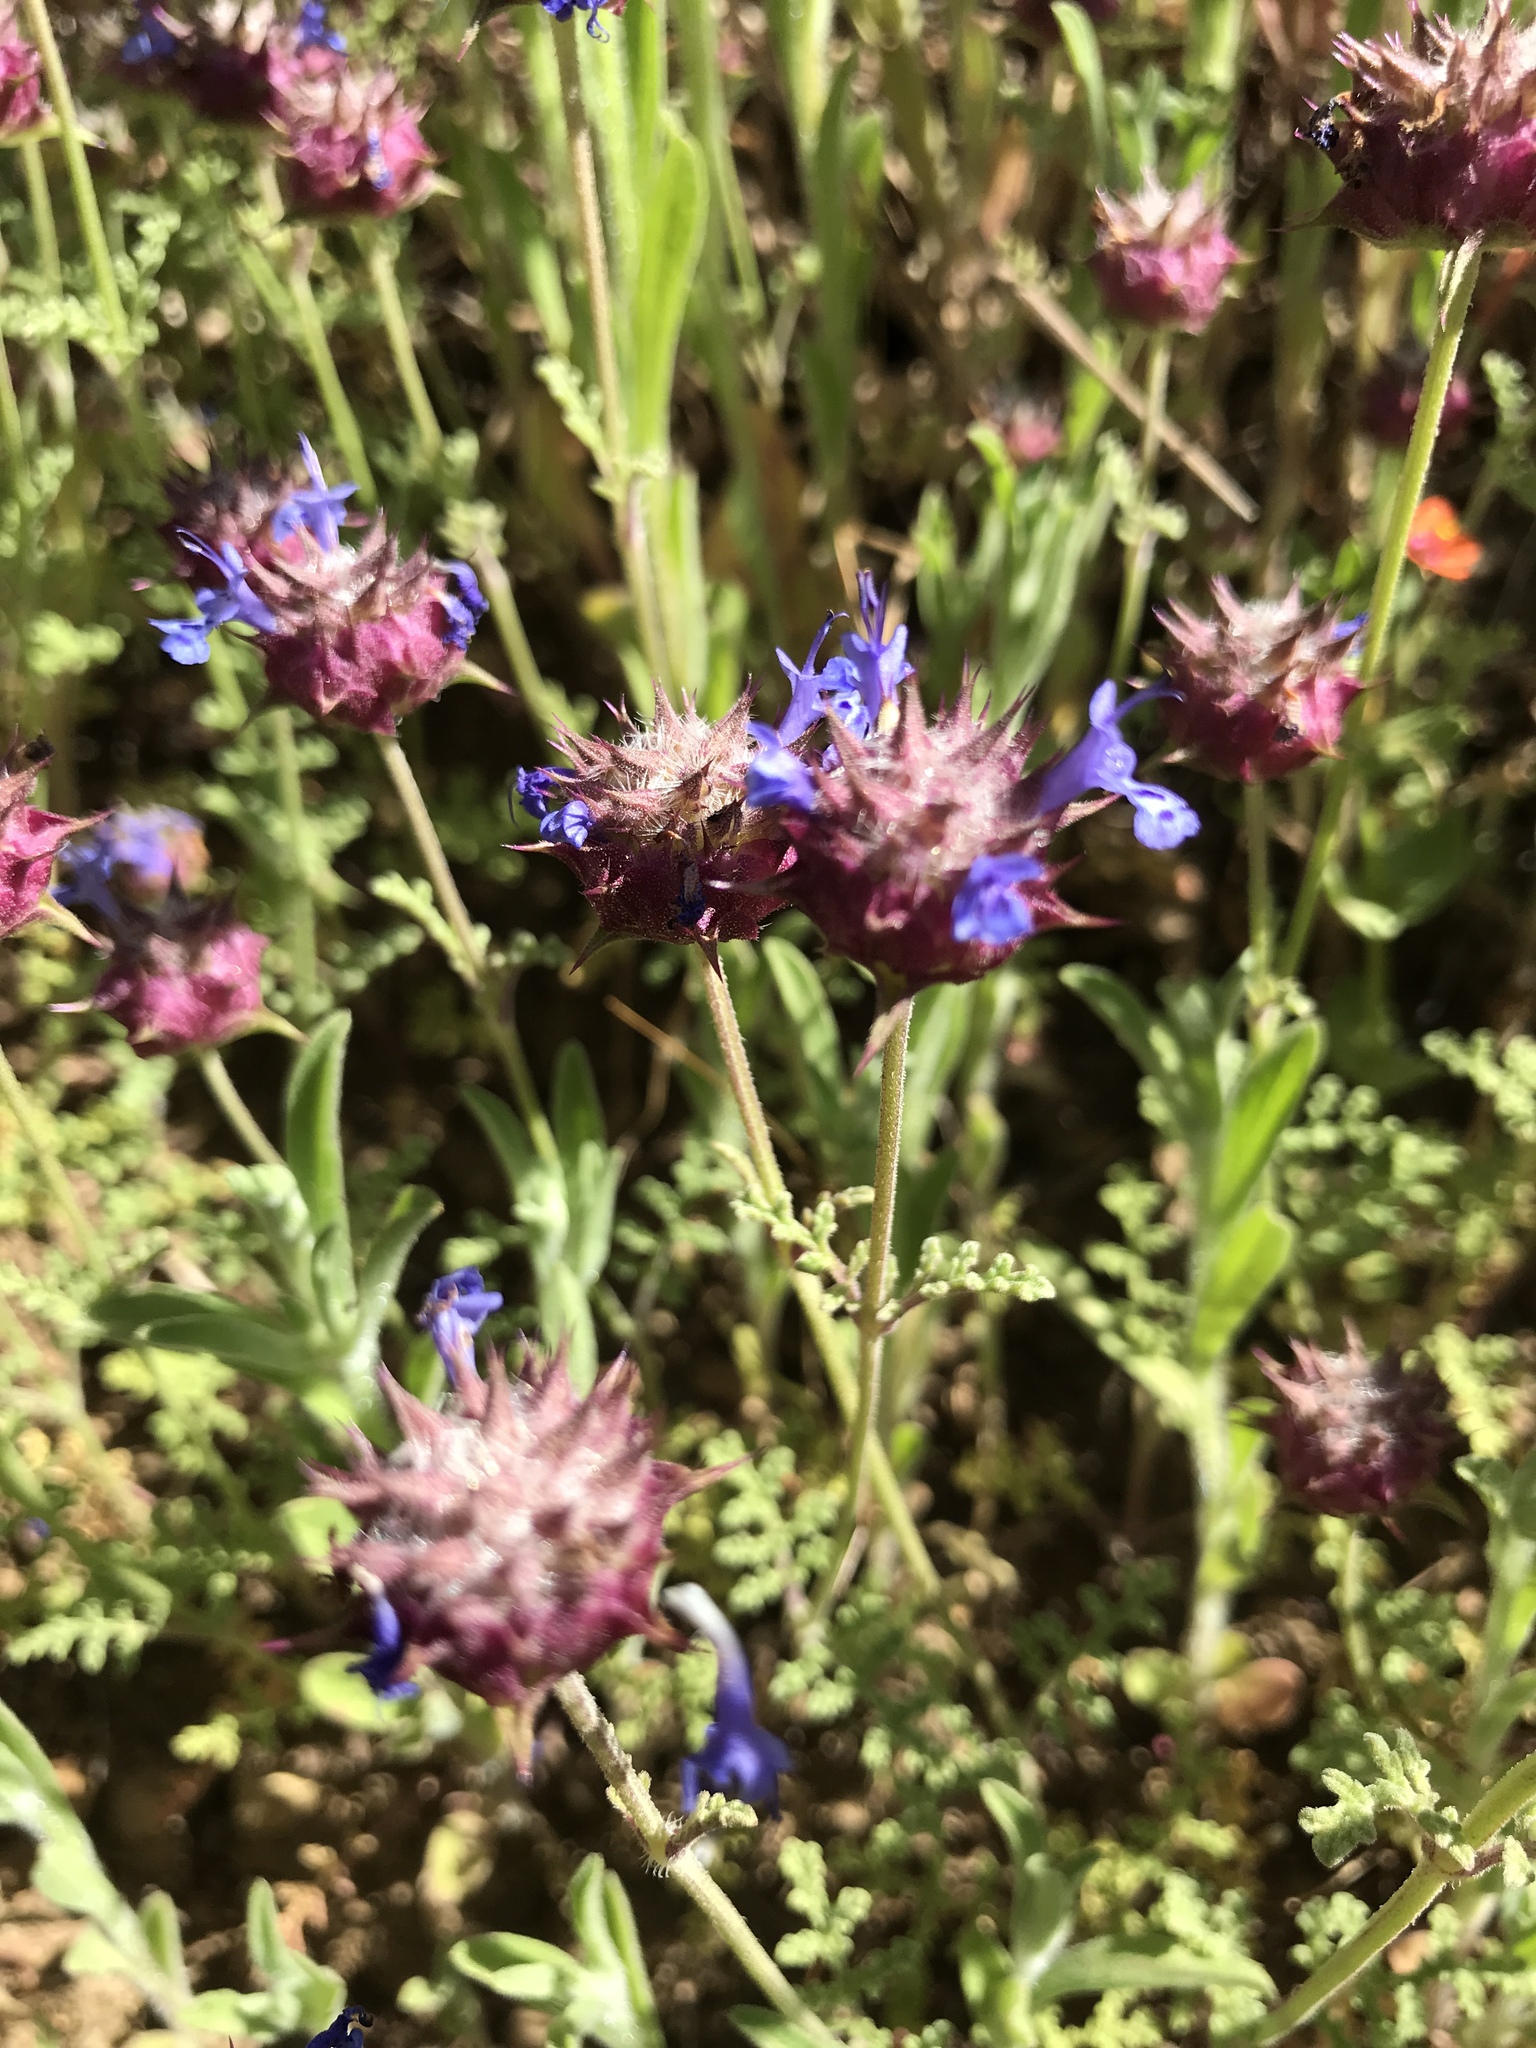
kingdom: Plantae
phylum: Tracheophyta
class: Magnoliopsida
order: Lamiales
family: Lamiaceae
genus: Salvia
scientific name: Salvia columbariae
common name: Chia
